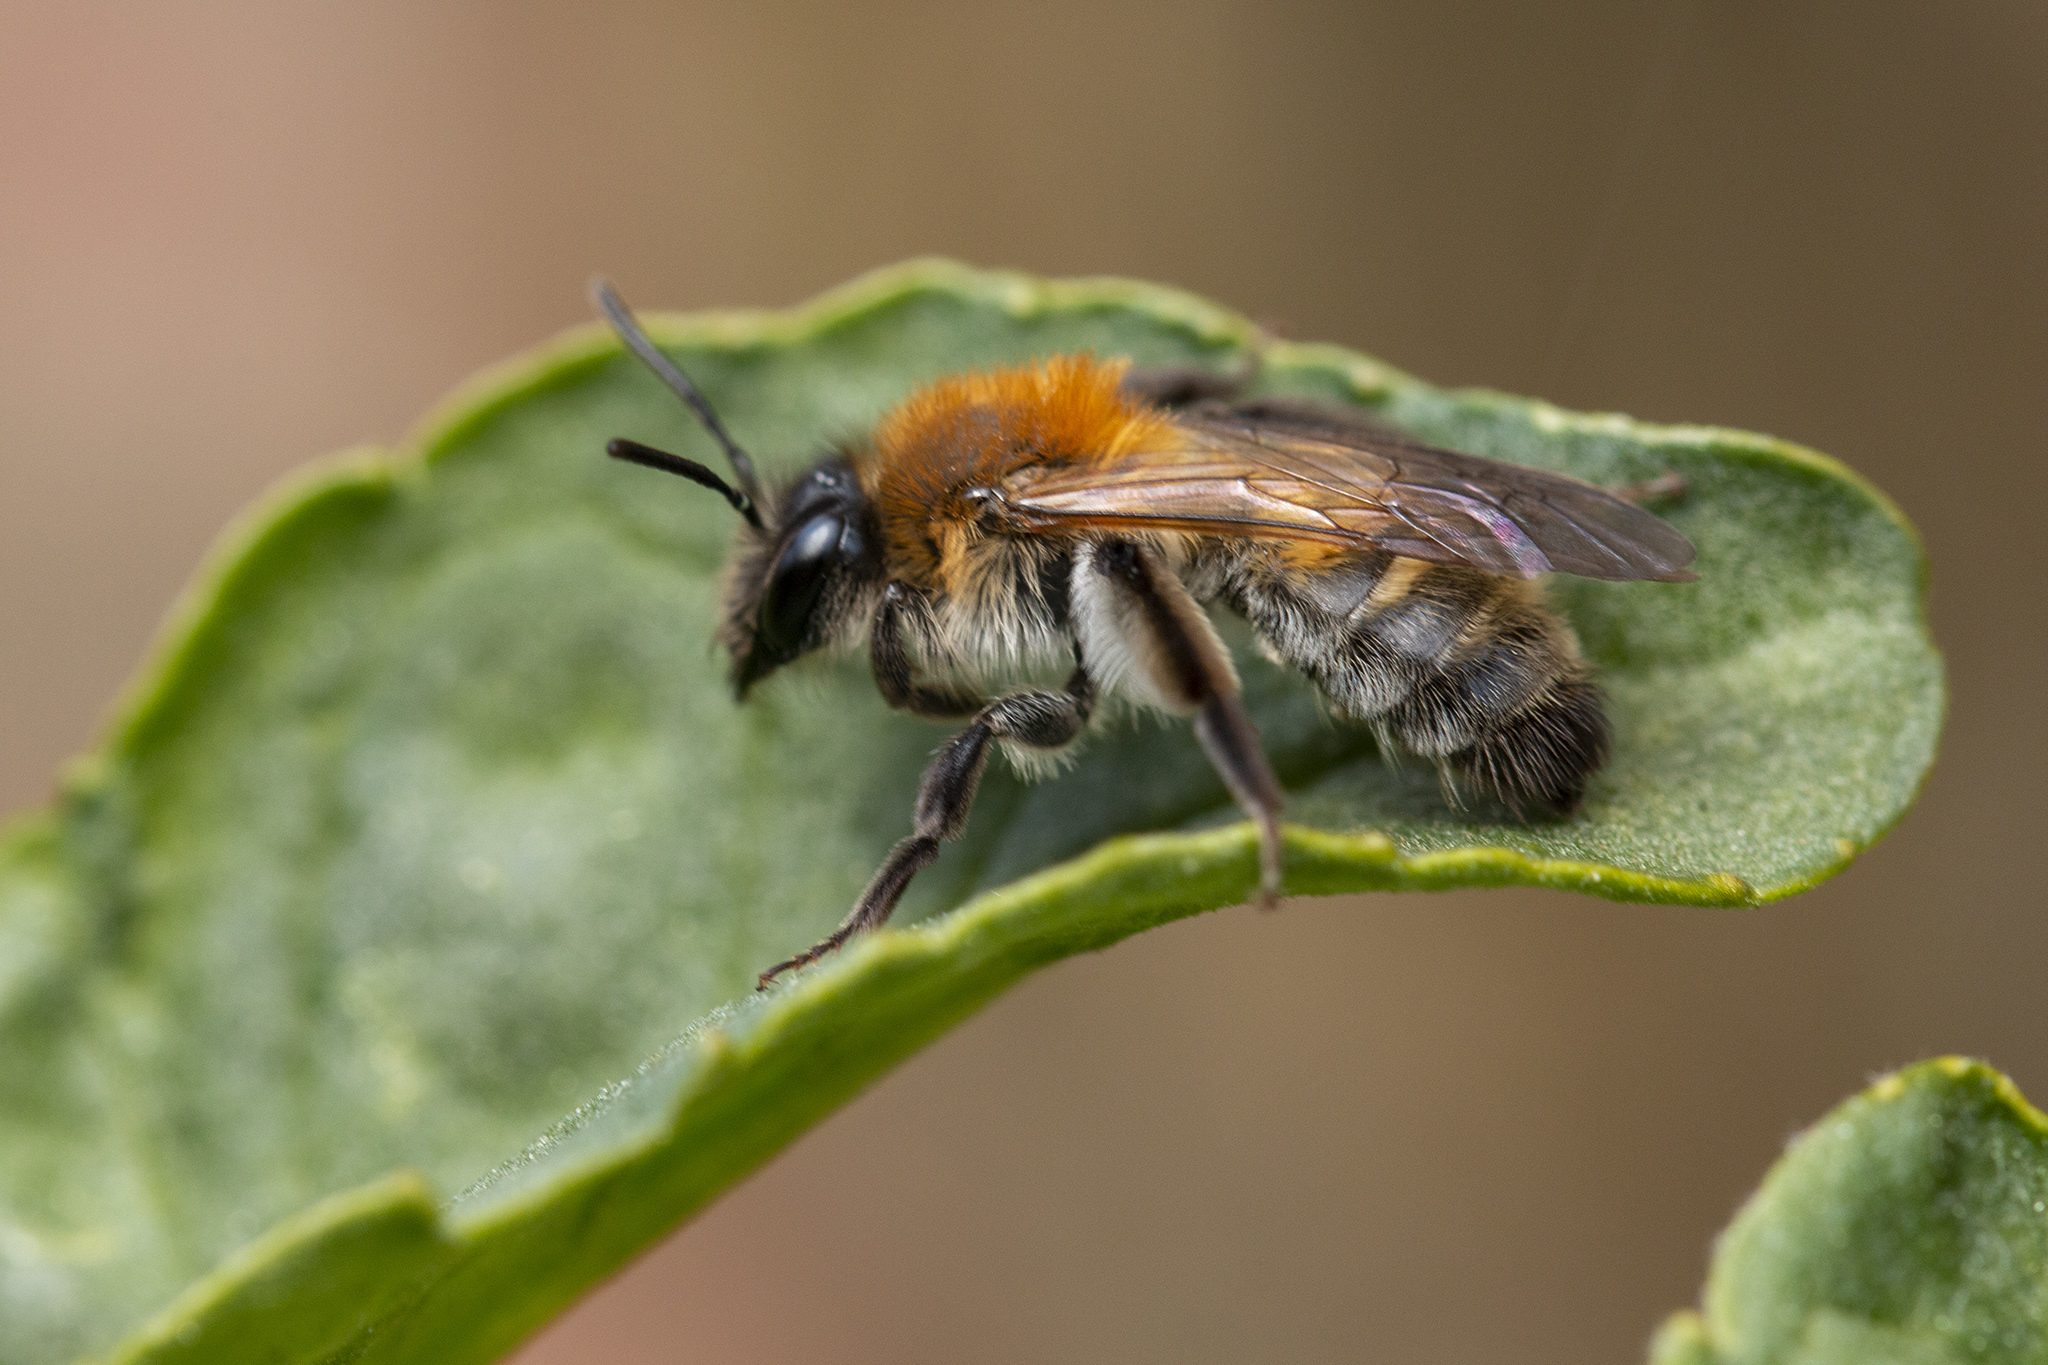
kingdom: Animalia
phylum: Arthropoda
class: Insecta
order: Hymenoptera
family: Andrenidae
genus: Andrena
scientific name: Andrena synadelpha
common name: Broad-margined mining bee
